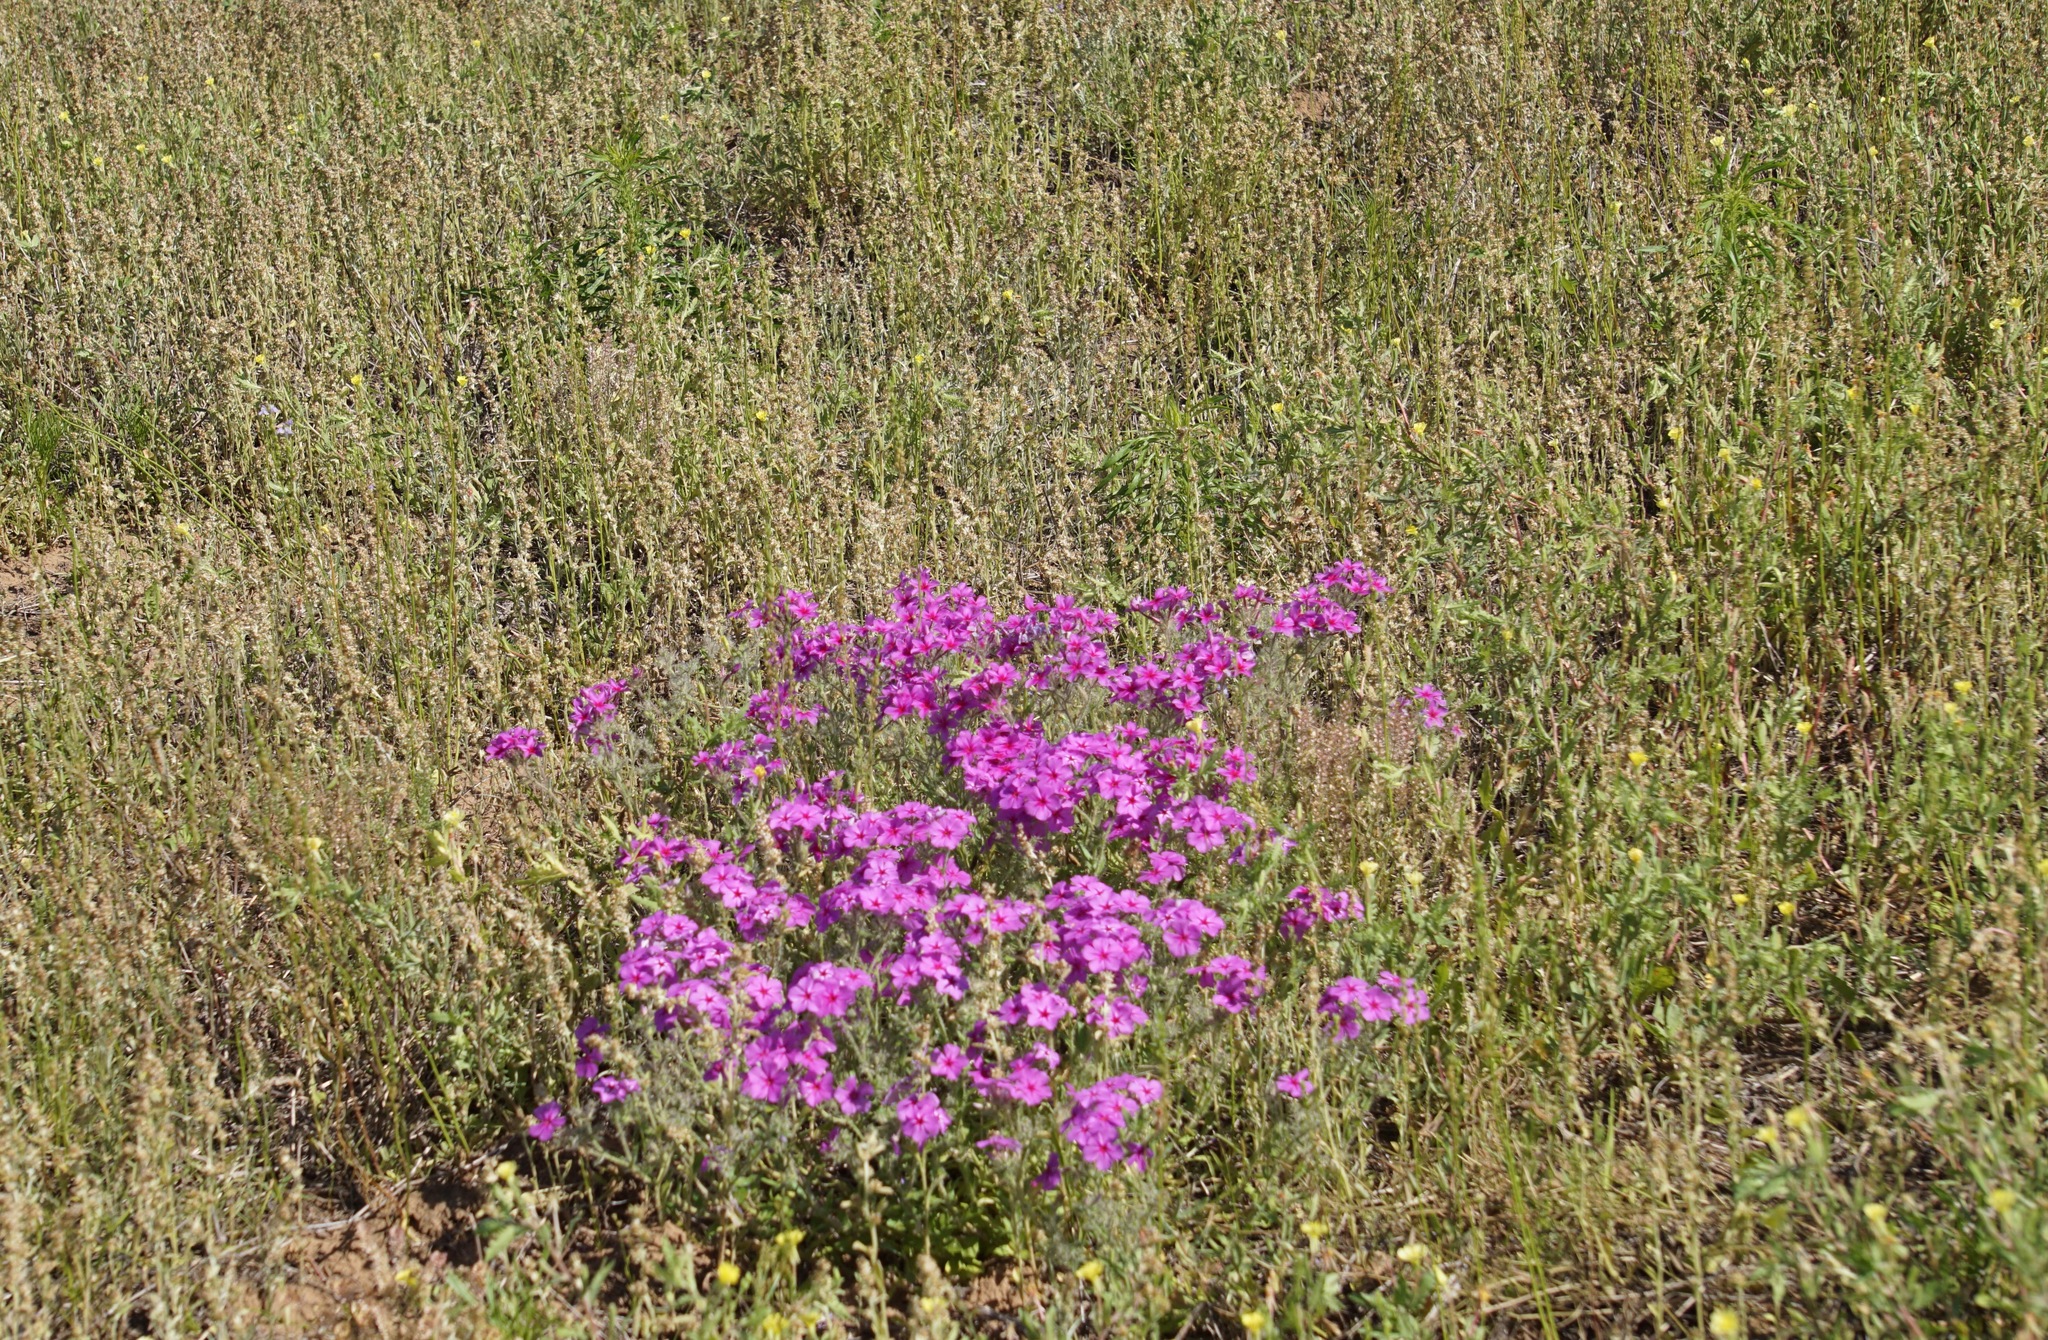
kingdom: Plantae
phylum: Tracheophyta
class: Magnoliopsida
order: Ericales
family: Polemoniaceae
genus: Phlox
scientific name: Phlox drummondii
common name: Drummond's phlox
